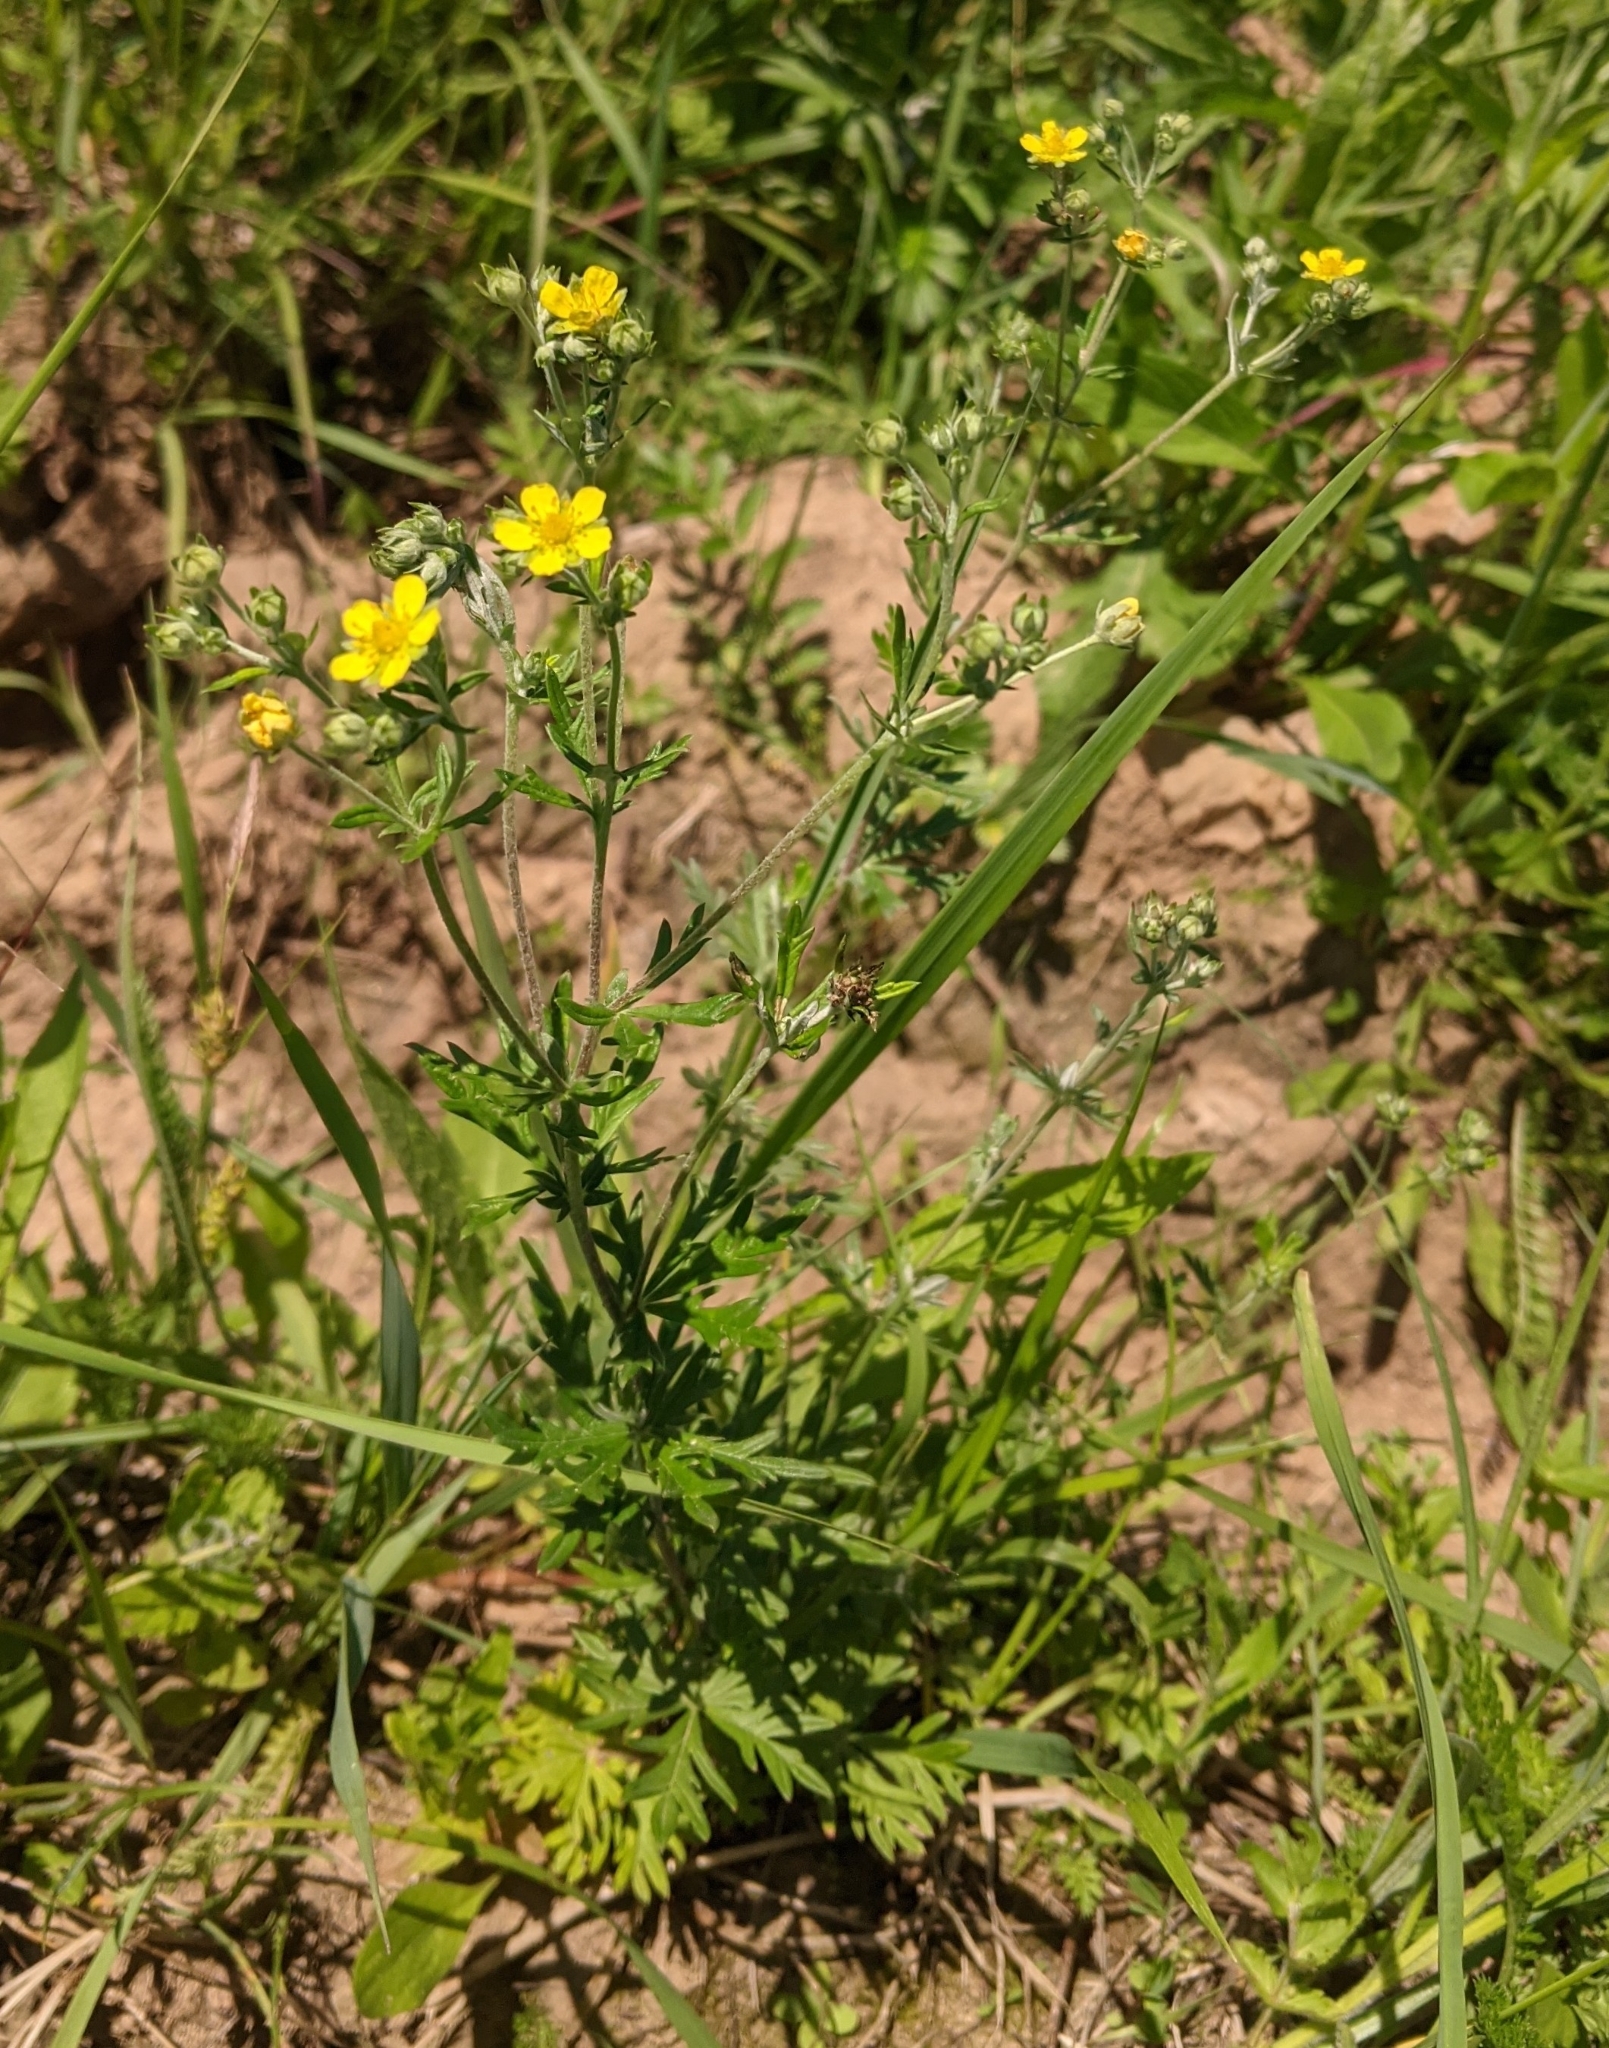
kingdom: Plantae
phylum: Tracheophyta
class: Magnoliopsida
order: Rosales
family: Rosaceae
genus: Potentilla
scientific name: Potentilla argentea
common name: Hoary cinquefoil
